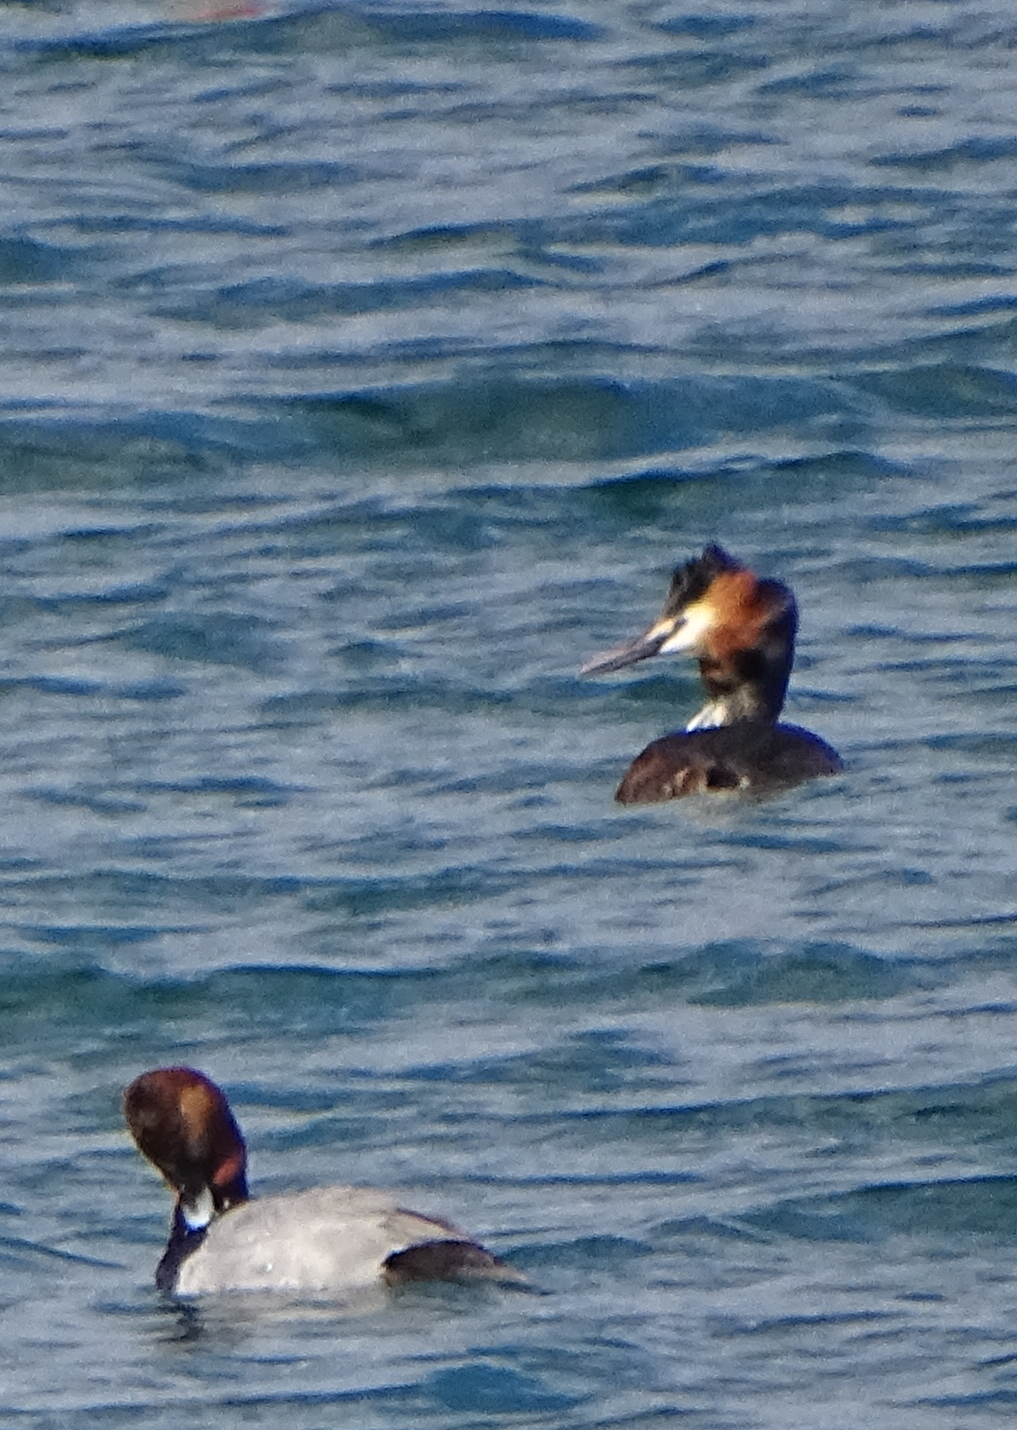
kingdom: Animalia
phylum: Chordata
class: Aves
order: Podicipediformes
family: Podicipedidae
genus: Podiceps
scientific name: Podiceps cristatus
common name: Great crested grebe
